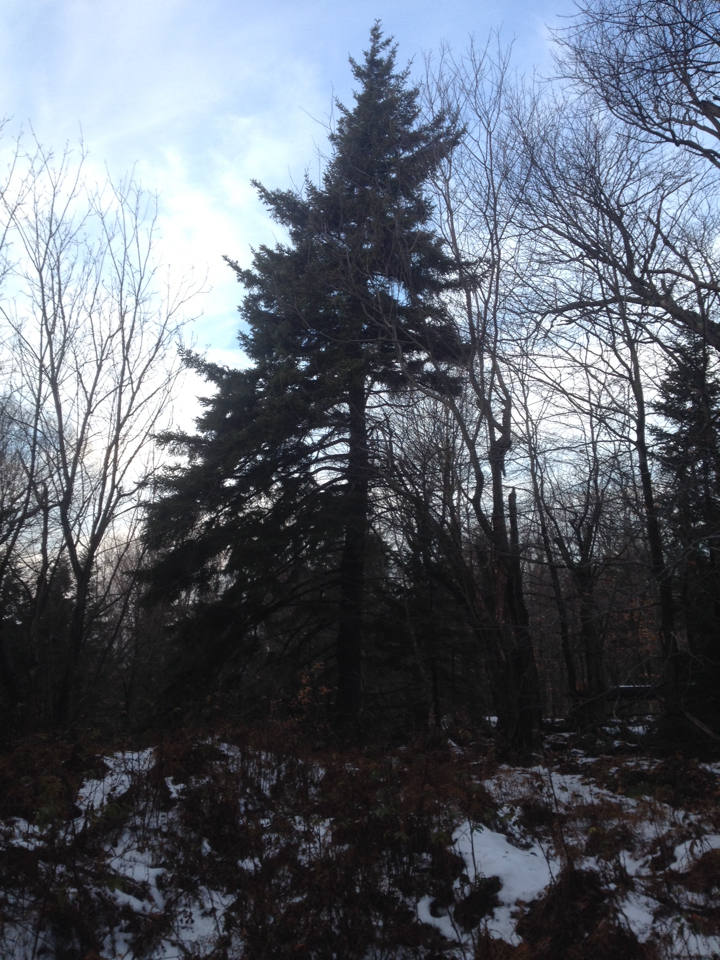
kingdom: Plantae
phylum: Tracheophyta
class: Pinopsida
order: Pinales
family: Pinaceae
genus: Picea
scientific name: Picea rubens
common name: Red spruce
